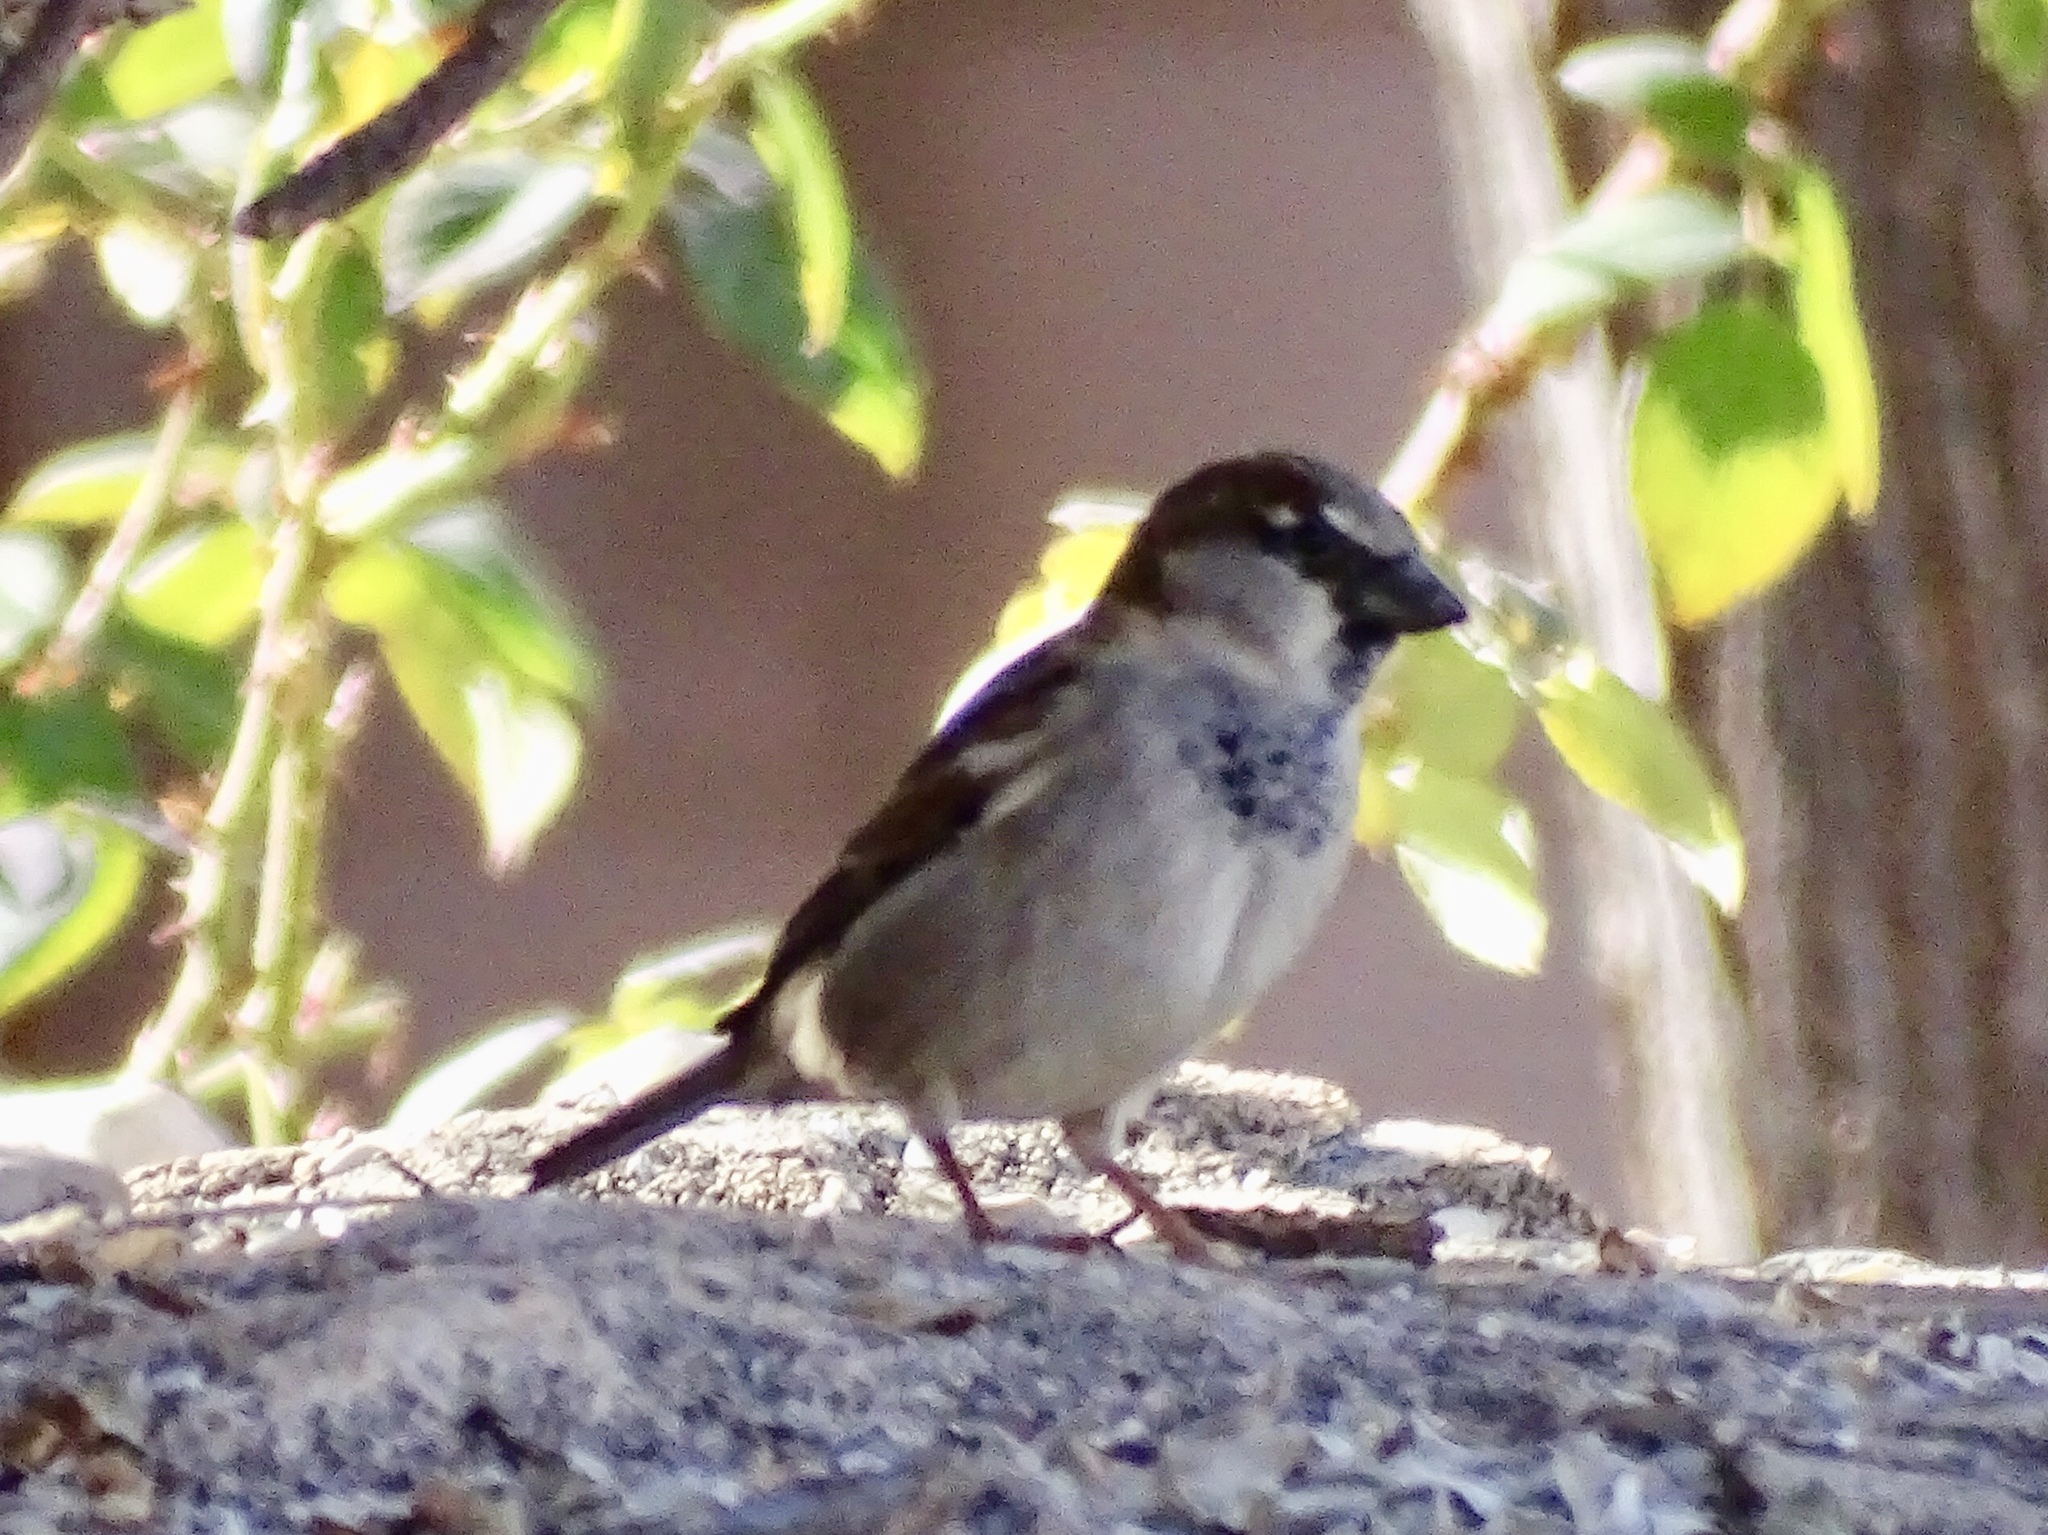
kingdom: Animalia
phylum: Chordata
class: Aves
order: Passeriformes
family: Passeridae
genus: Passer
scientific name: Passer domesticus
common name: House sparrow
